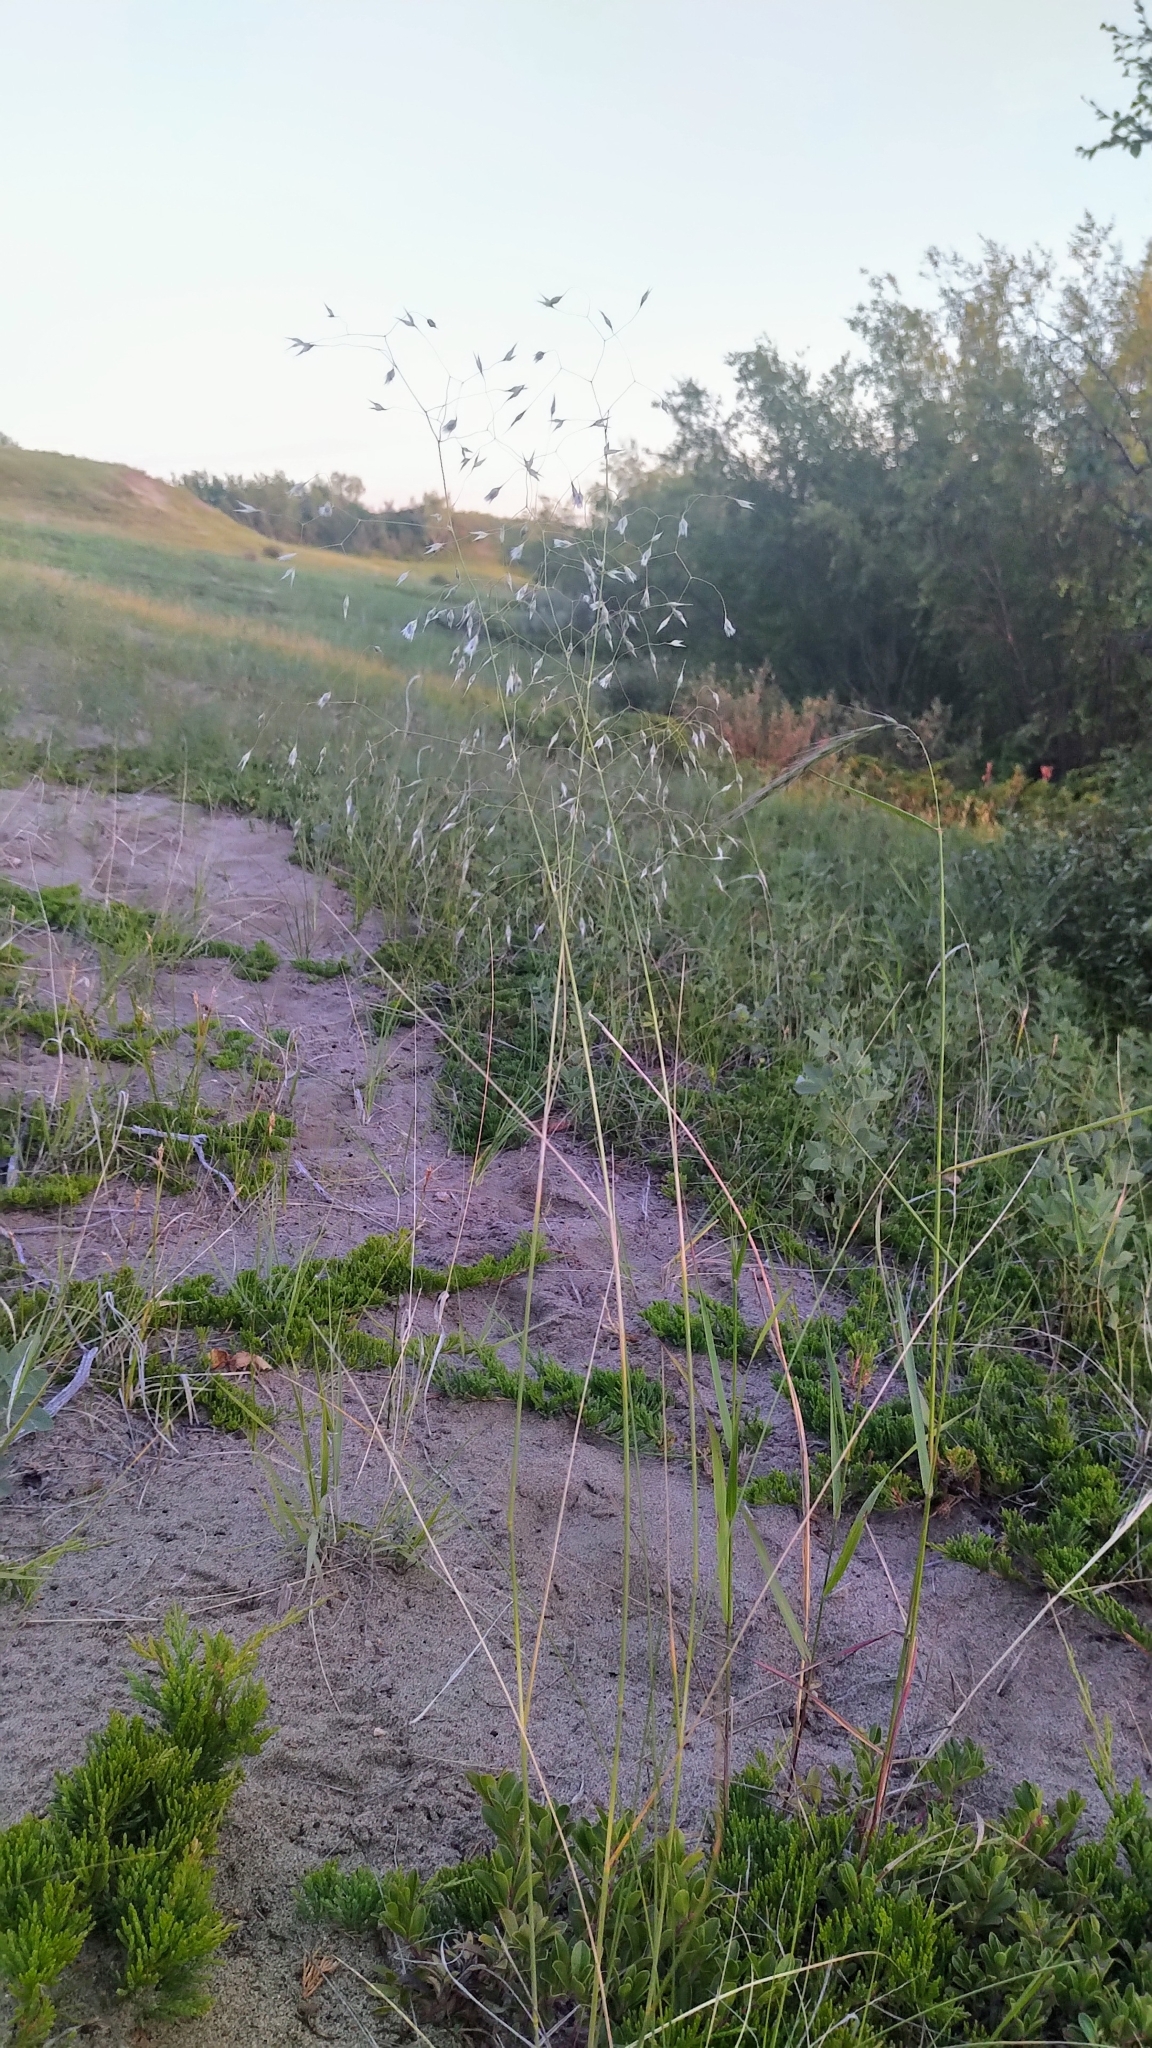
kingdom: Plantae
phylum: Tracheophyta
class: Liliopsida
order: Poales
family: Poaceae
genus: Eriocoma
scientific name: Eriocoma hymenoides
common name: Indian mountain ricegrass
